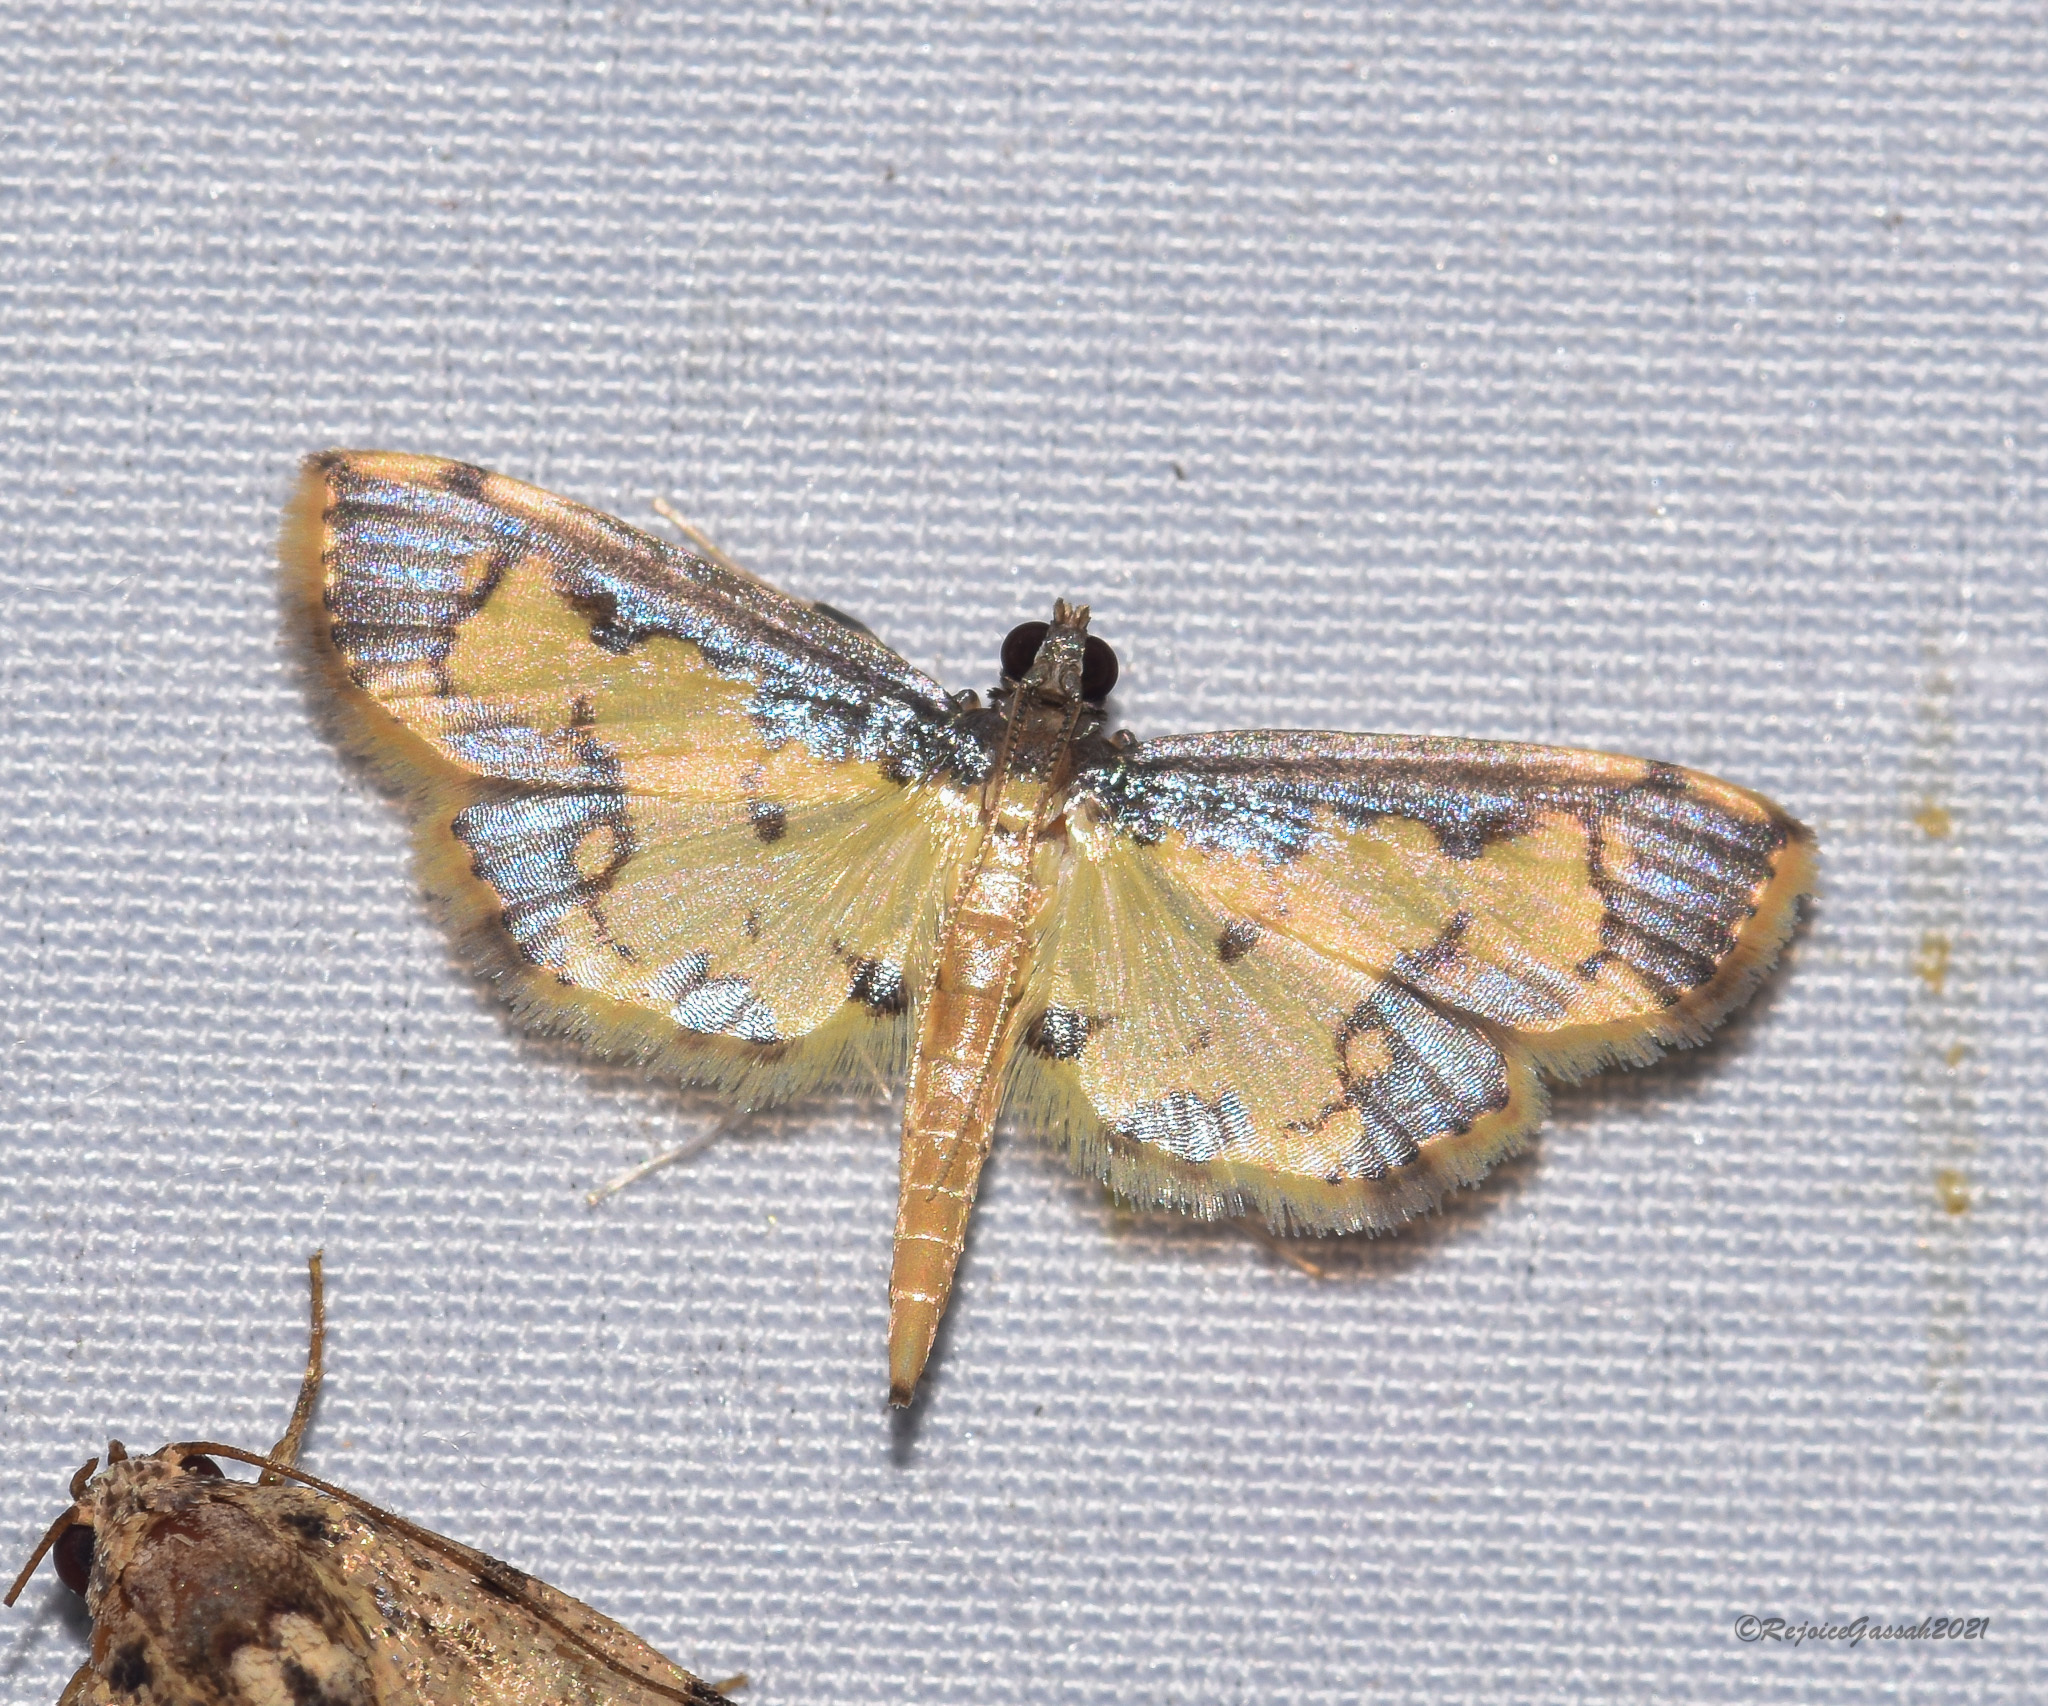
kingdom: Animalia
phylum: Arthropoda
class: Insecta
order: Lepidoptera
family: Crambidae
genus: Agrotera
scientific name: Agrotera
